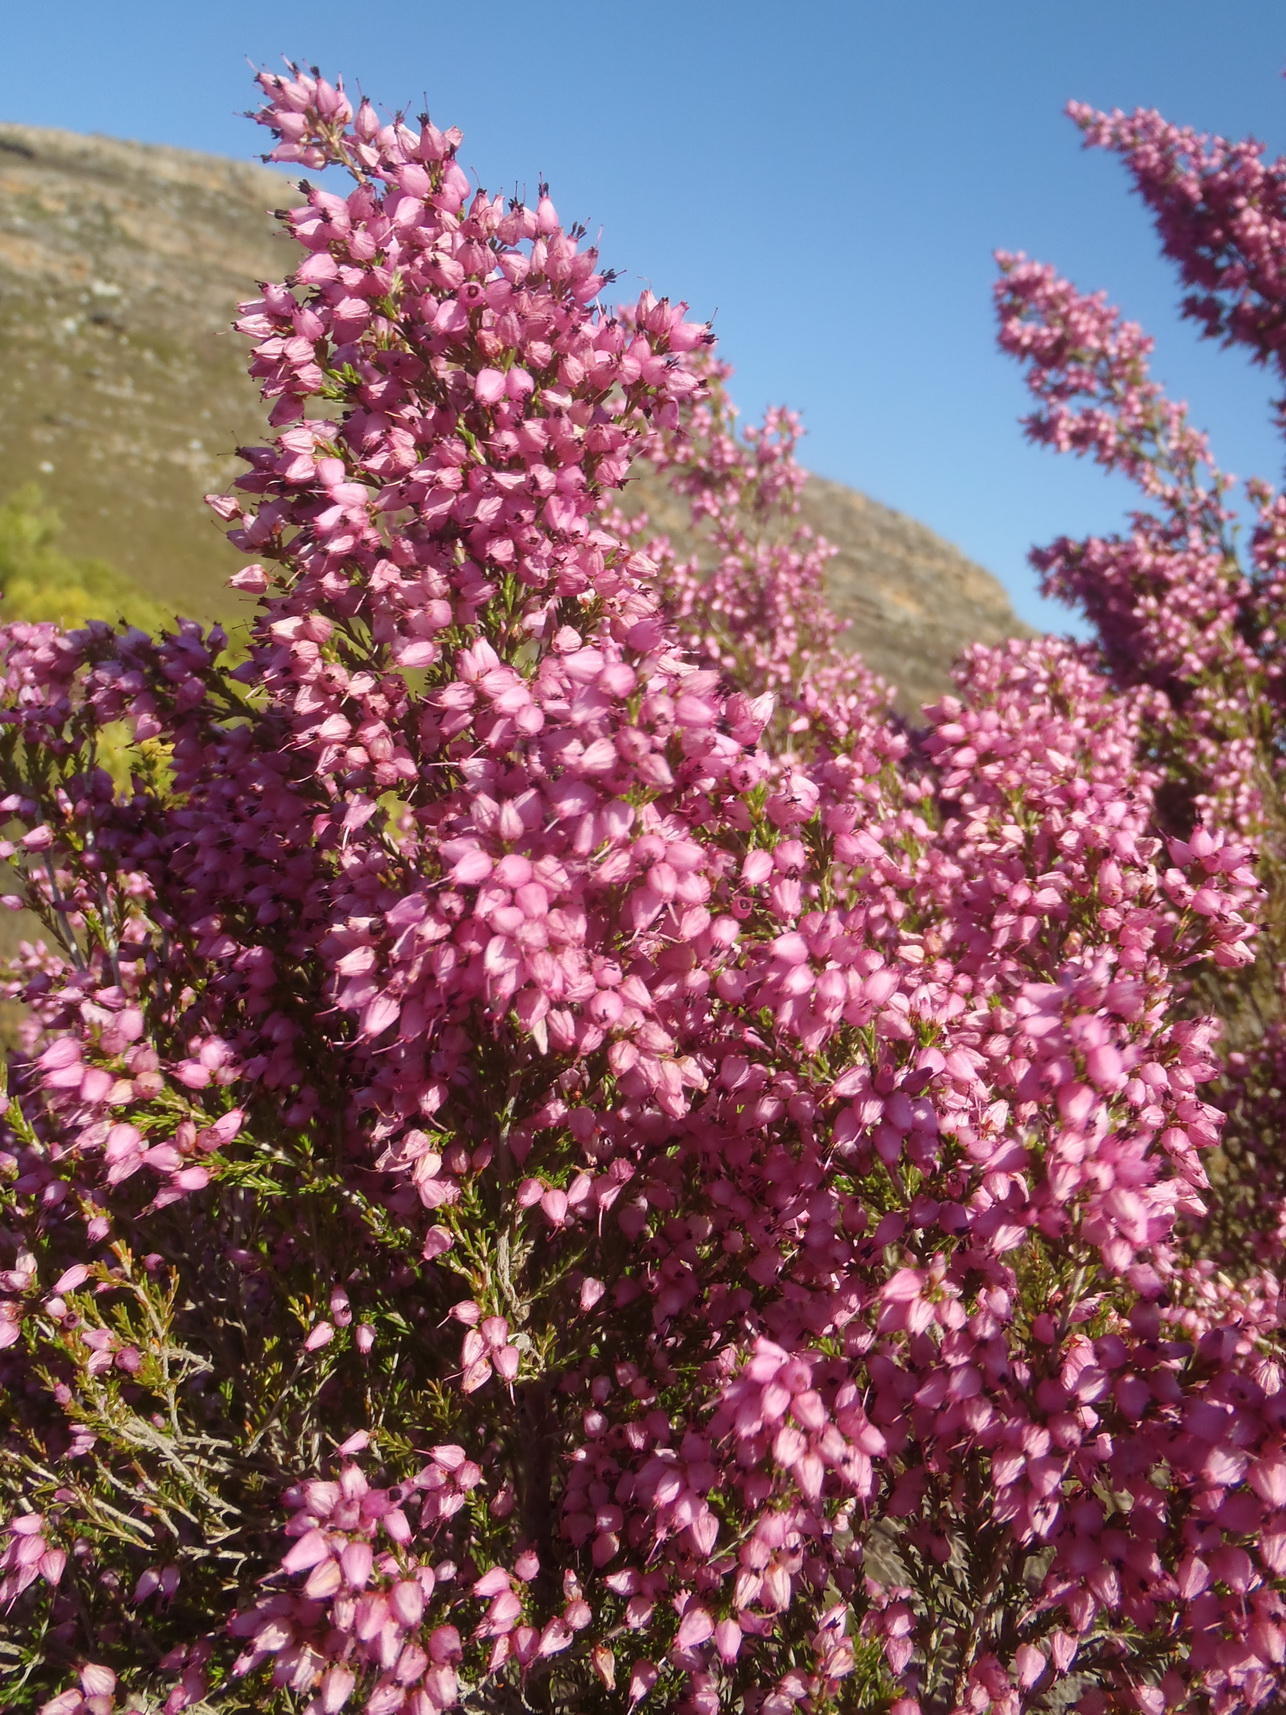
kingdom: Plantae
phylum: Tracheophyta
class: Magnoliopsida
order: Ericales
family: Ericaceae
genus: Erica
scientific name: Erica nutans
